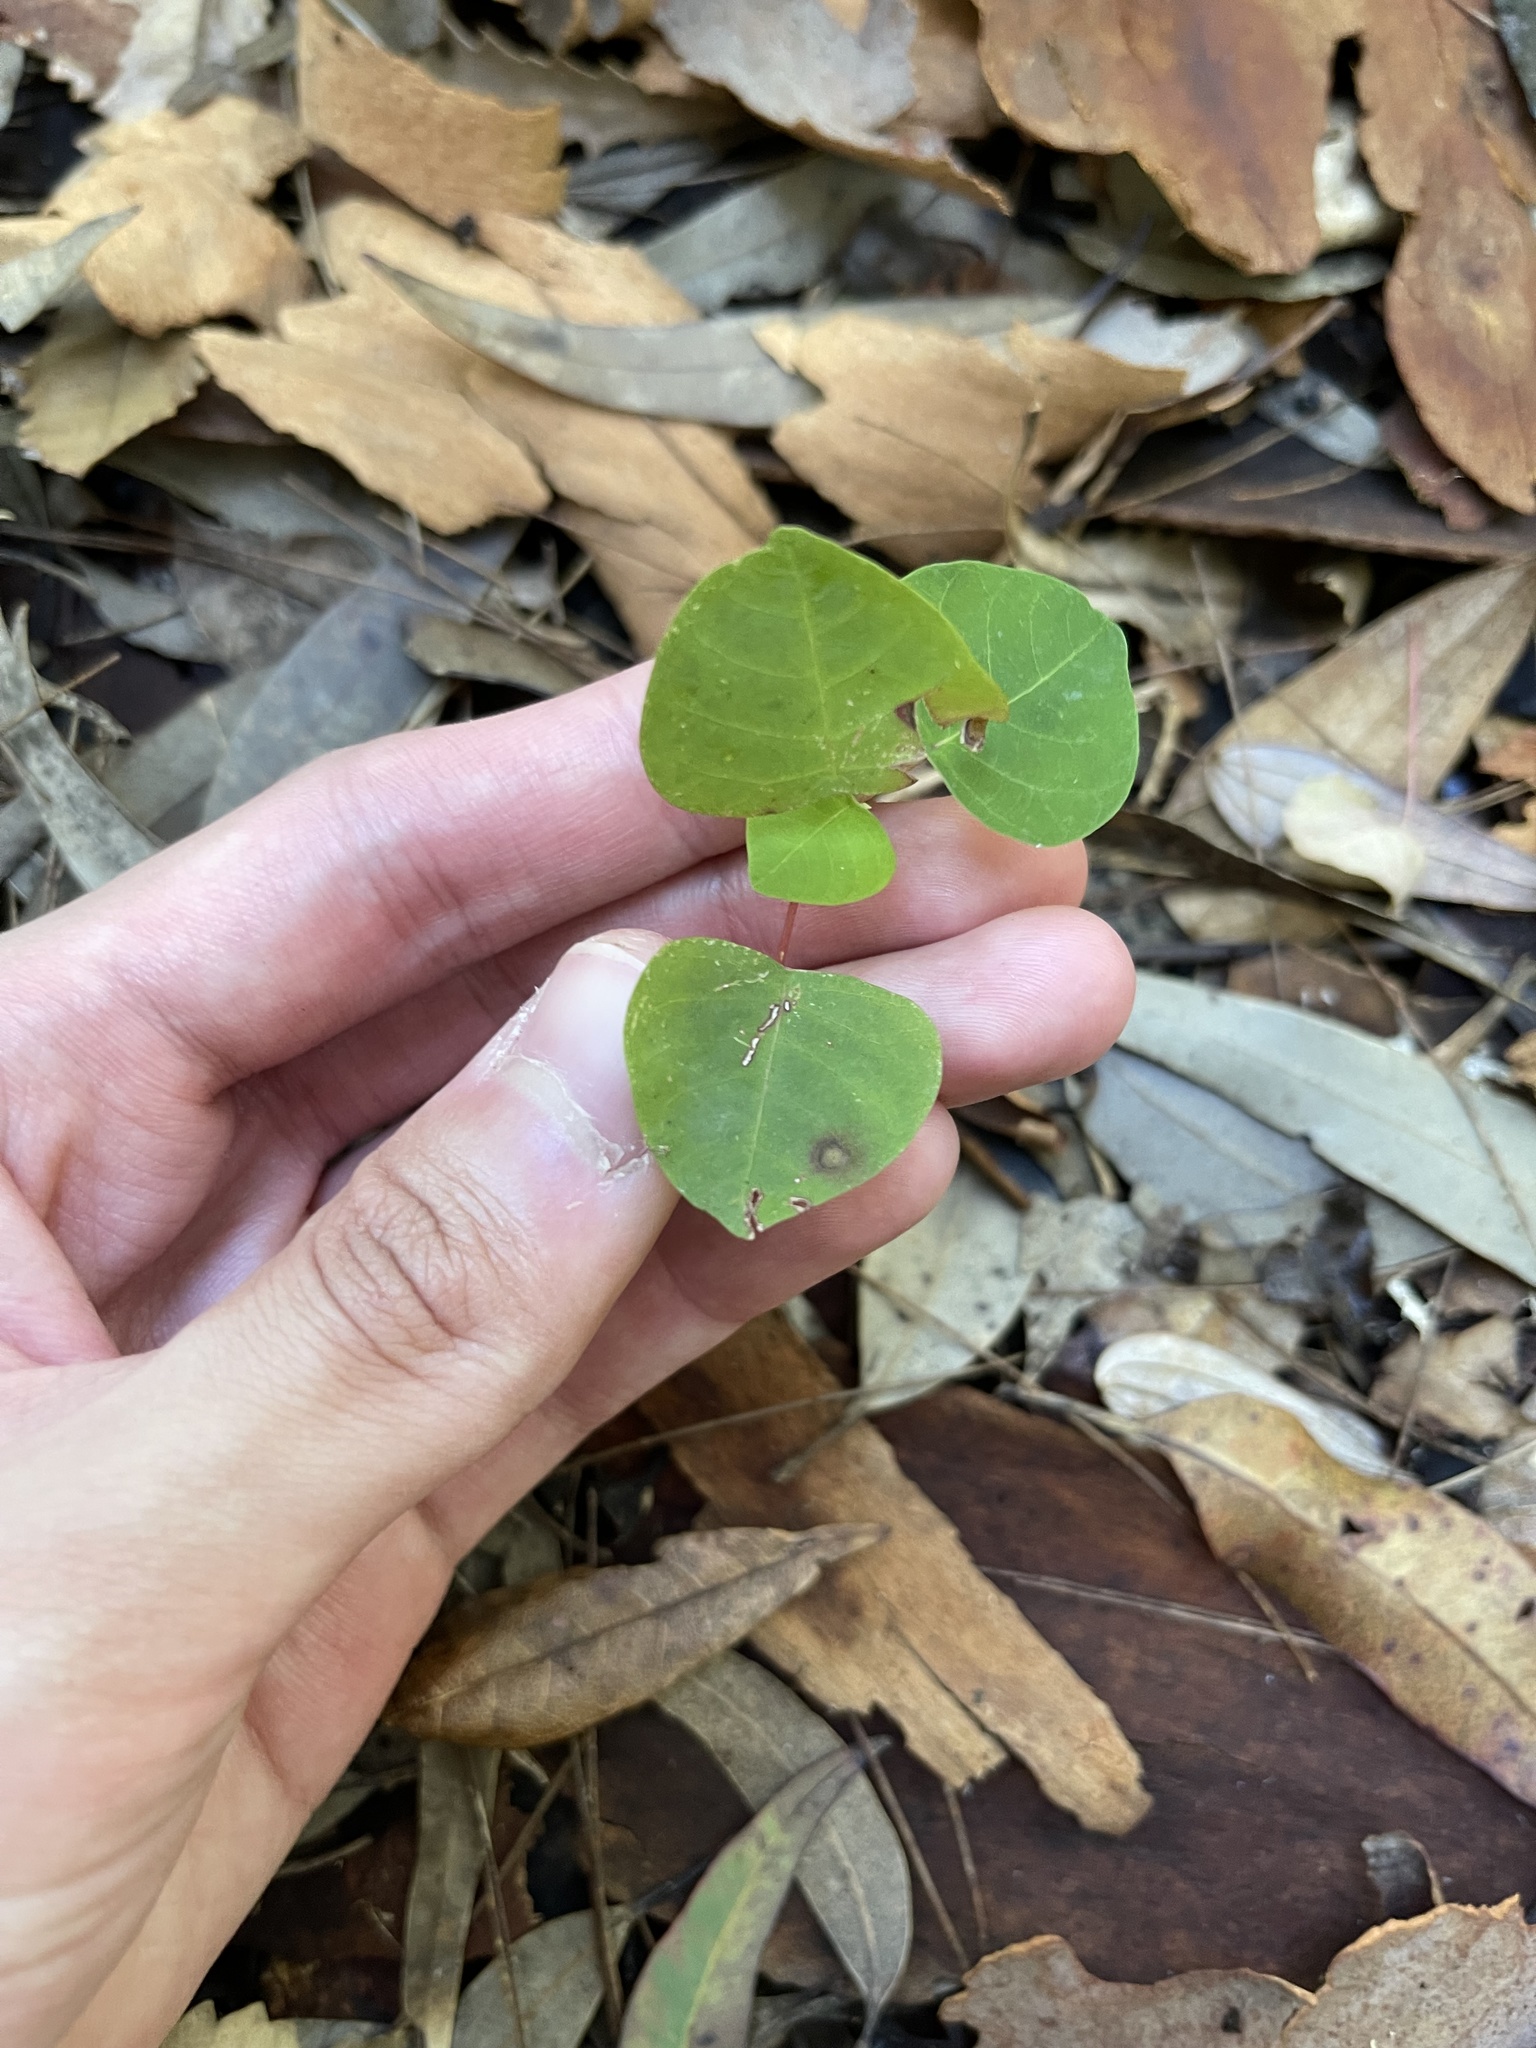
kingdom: Plantae
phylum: Tracheophyta
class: Magnoliopsida
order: Malpighiales
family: Euphorbiaceae
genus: Homalanthus
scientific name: Homalanthus populifolius
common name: Queensland poplar
